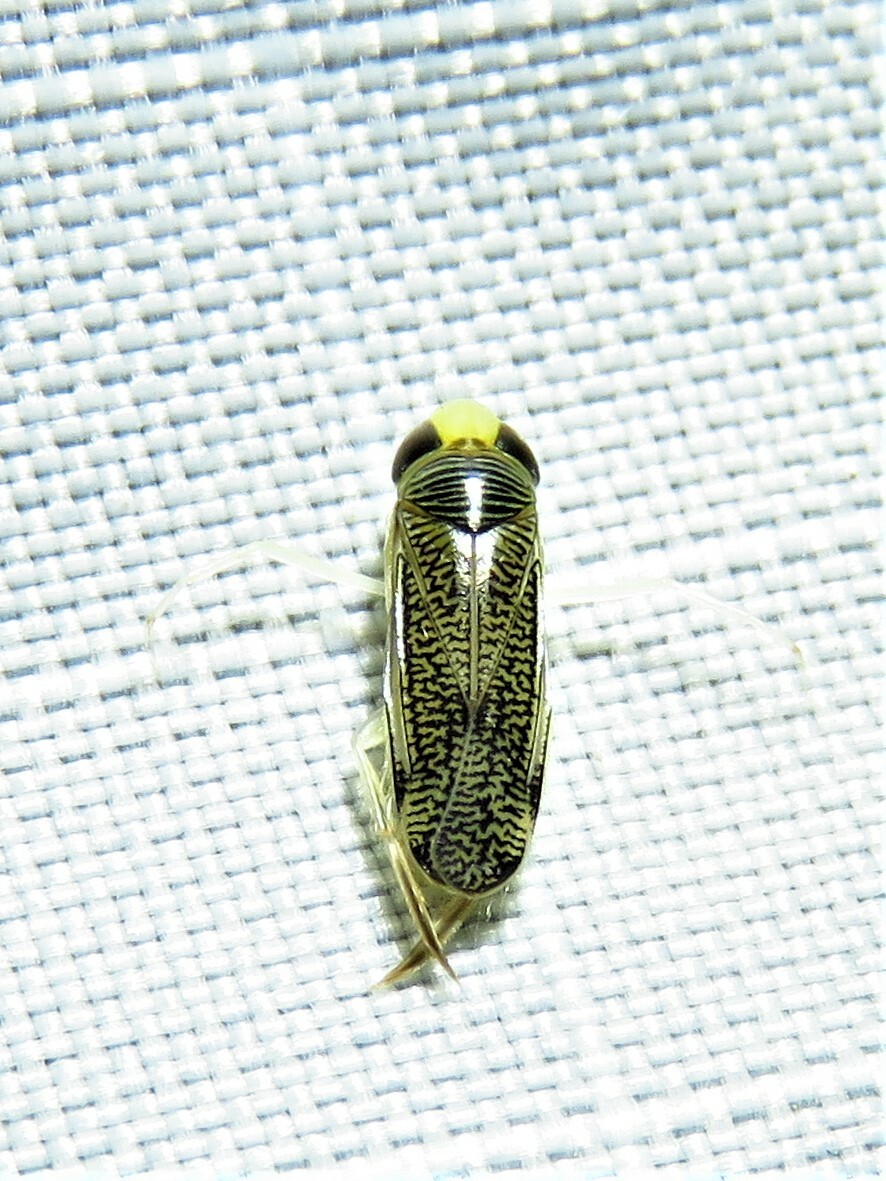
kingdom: Animalia
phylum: Arthropoda
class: Insecta
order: Hemiptera
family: Corixidae
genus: Trichocorixa
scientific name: Trichocorixa
